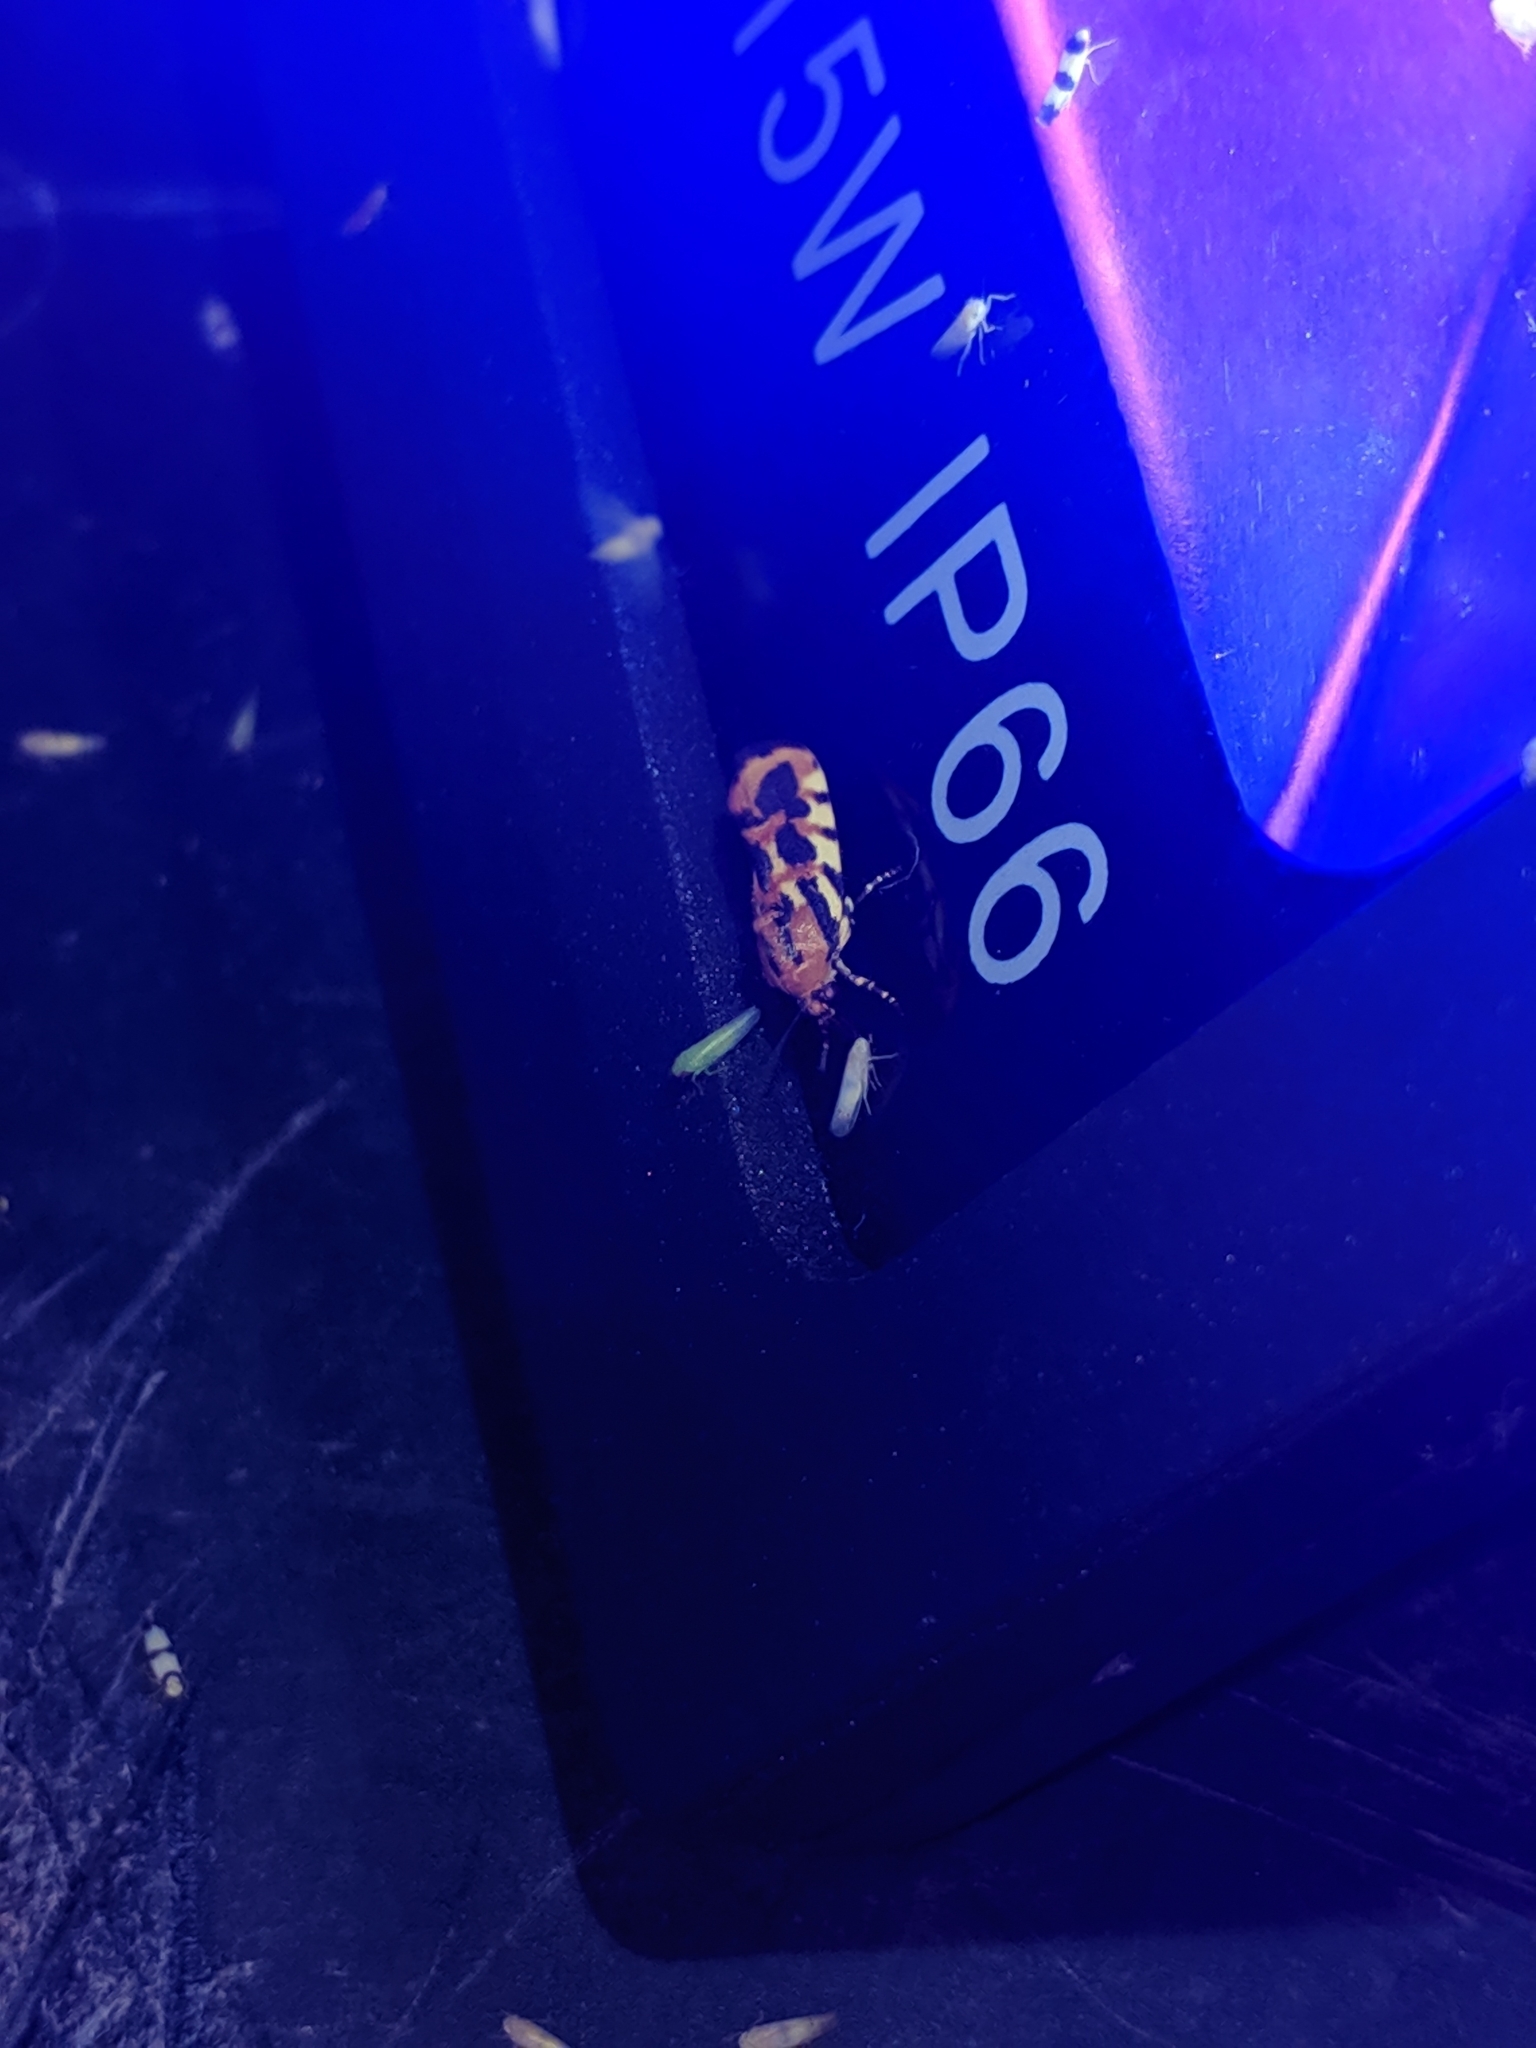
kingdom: Animalia
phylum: Arthropoda
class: Insecta
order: Lepidoptera
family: Noctuidae
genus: Acontia
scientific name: Acontia leo
